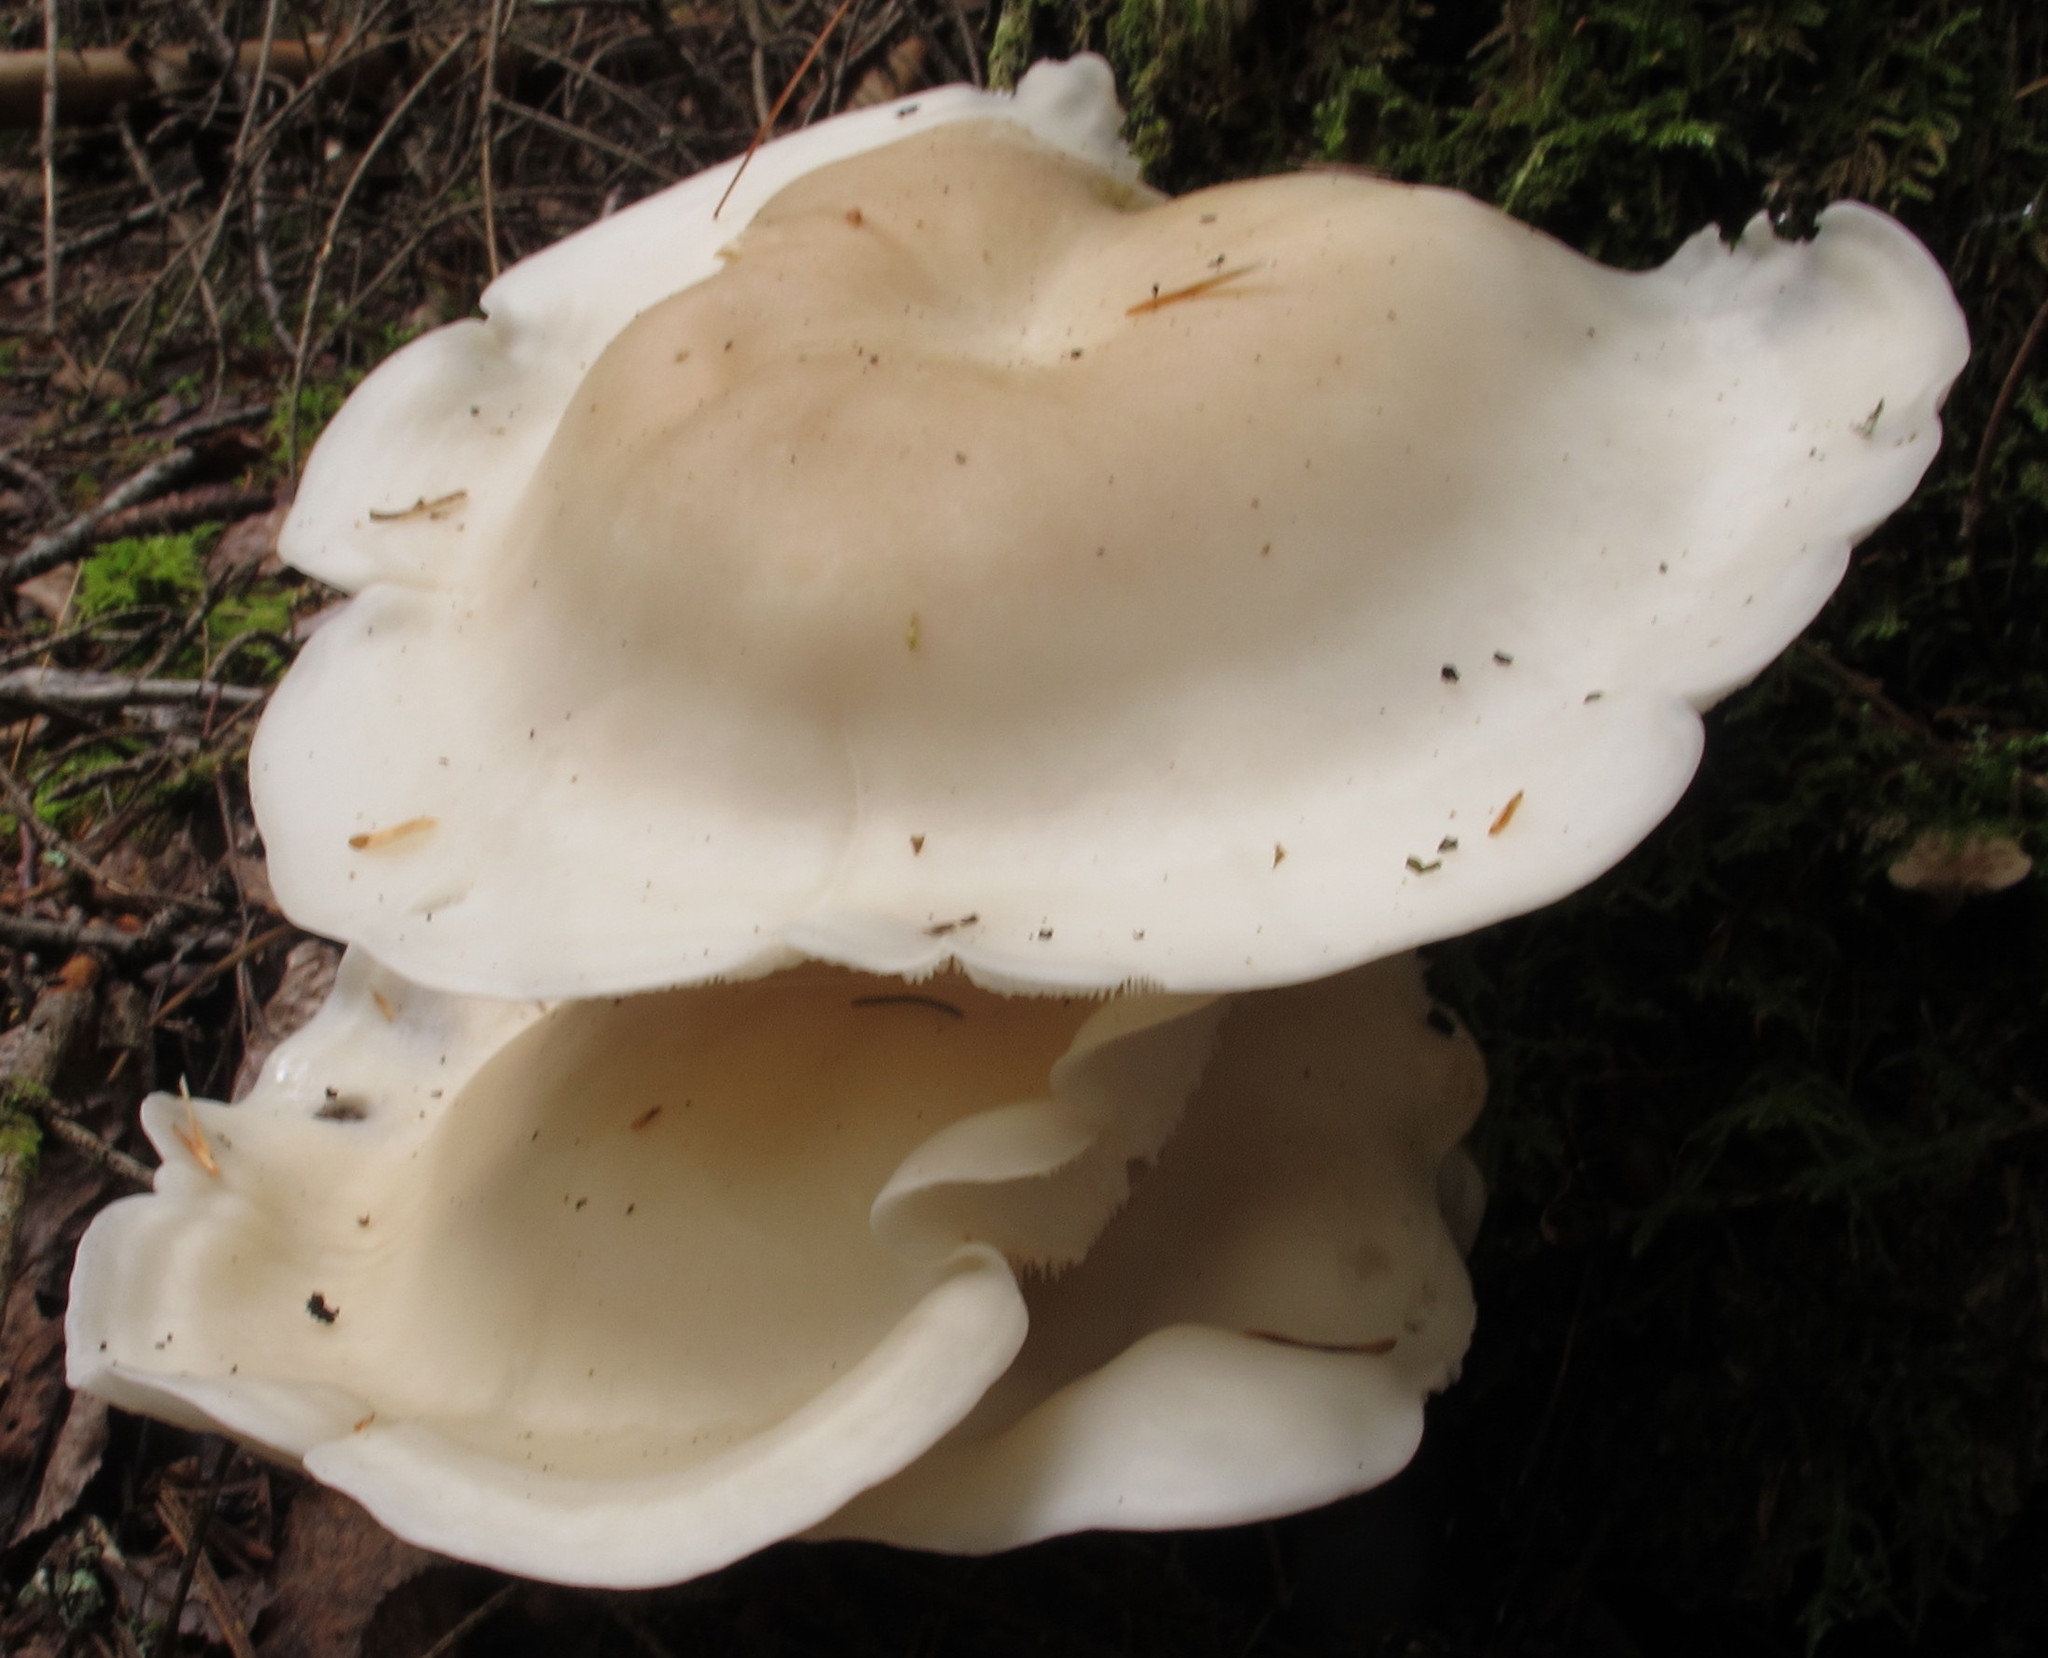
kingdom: Fungi
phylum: Basidiomycota
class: Agaricomycetes
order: Agaricales
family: Lyophyllaceae
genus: Hypsizygus
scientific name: Hypsizygus marmoreus
